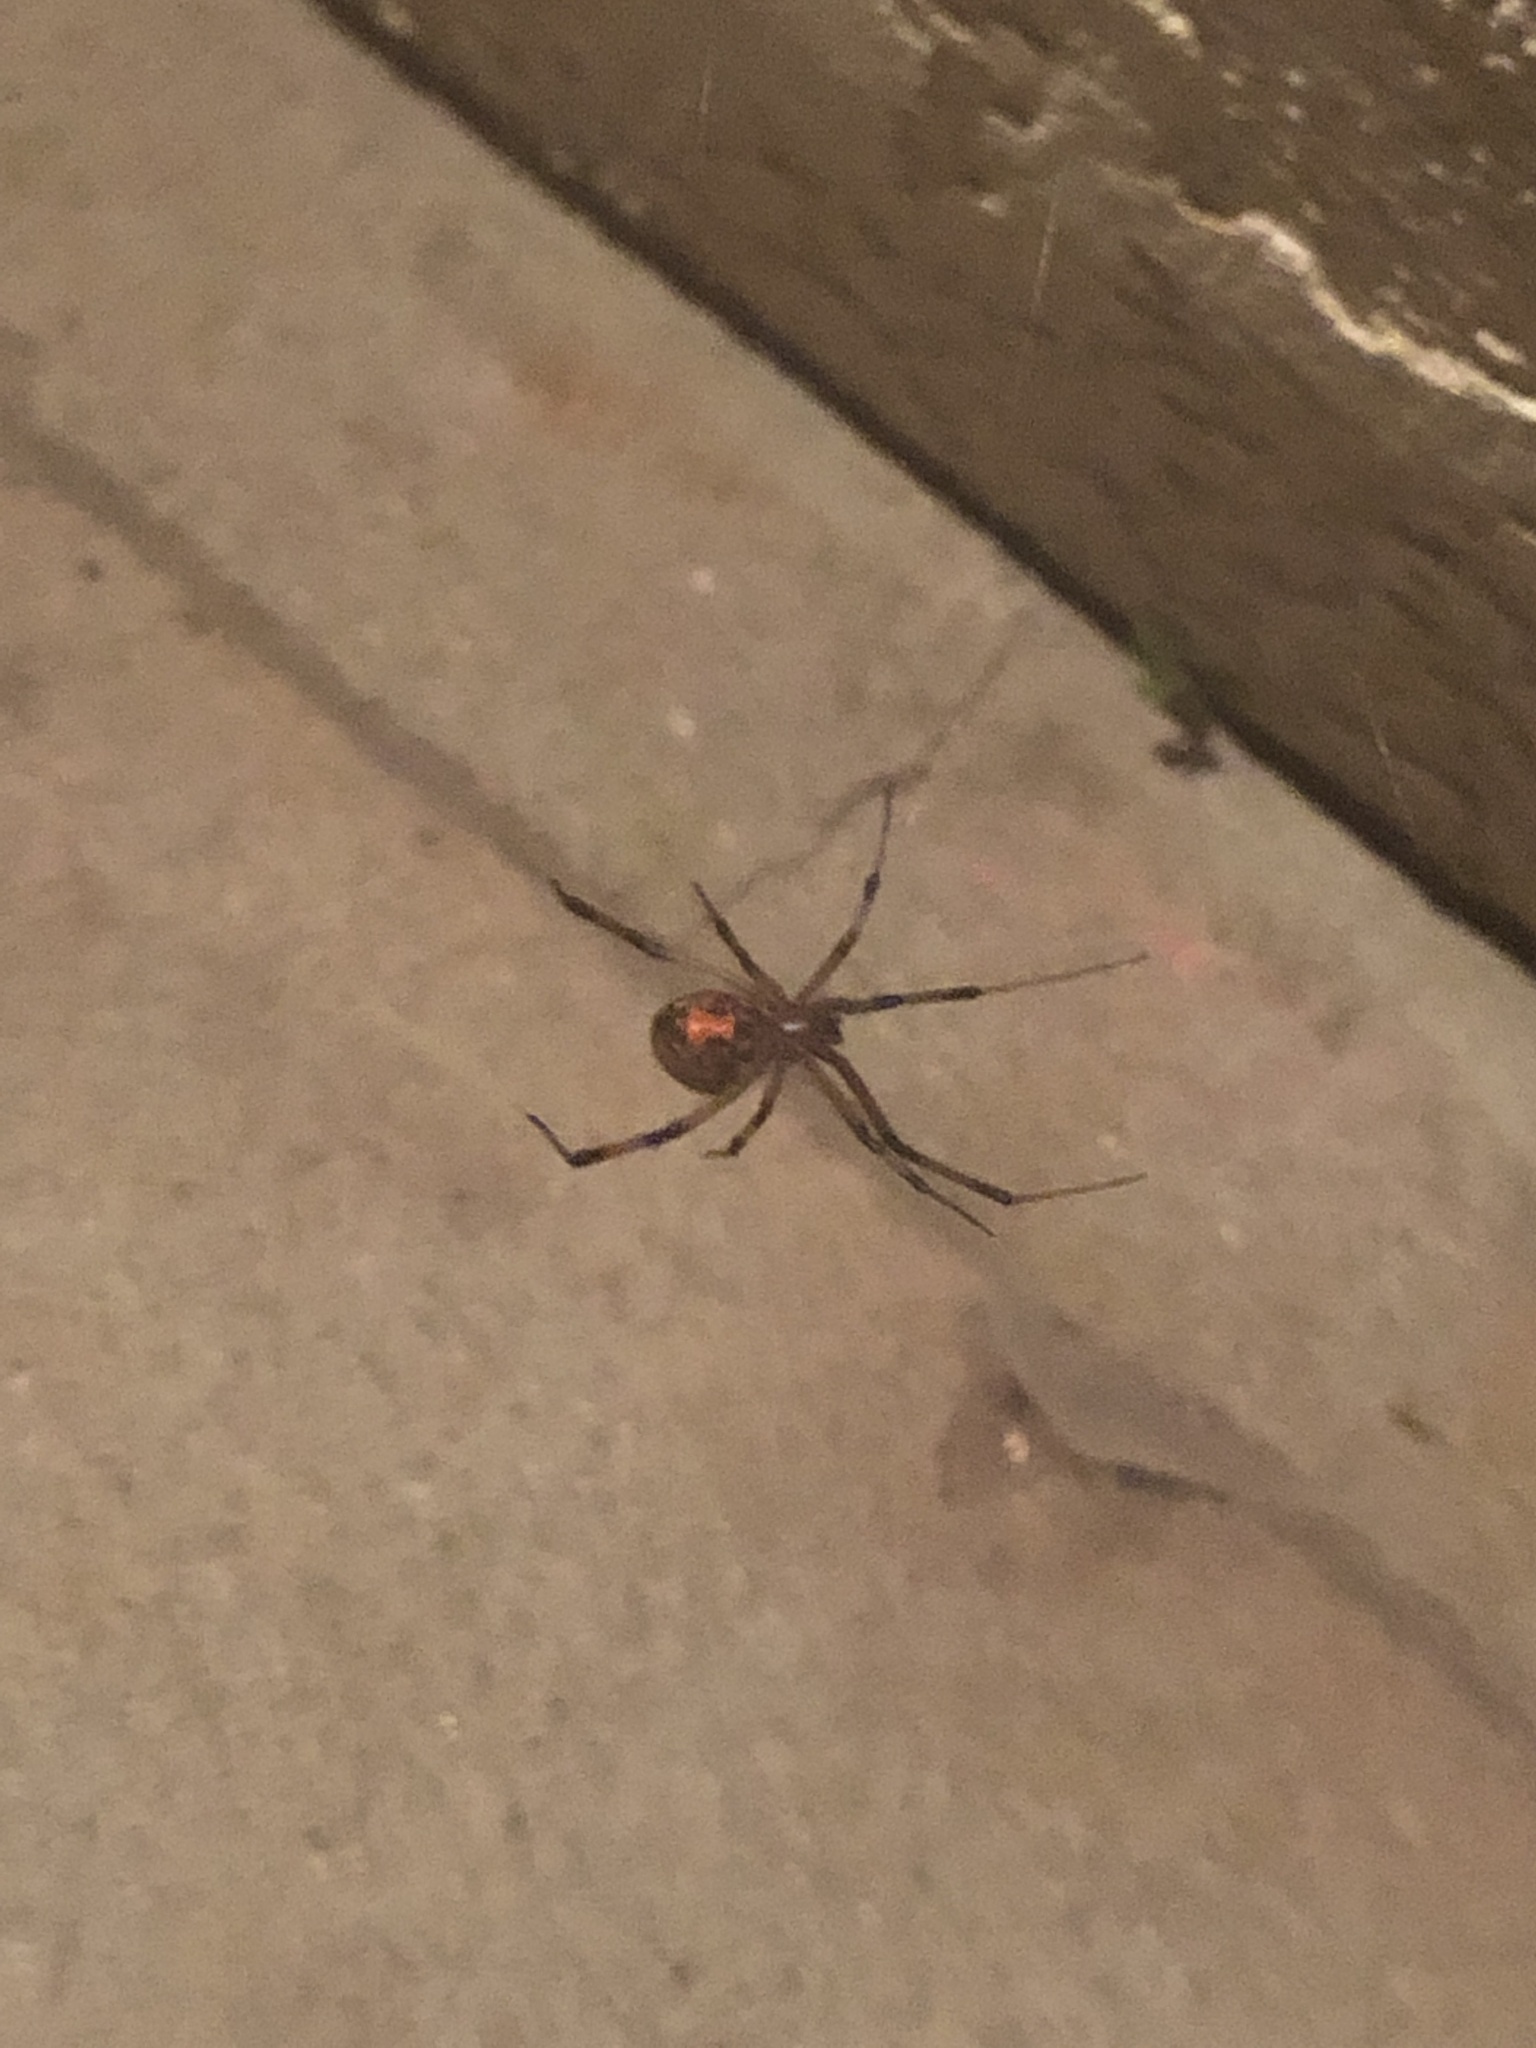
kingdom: Animalia
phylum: Arthropoda
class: Arachnida
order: Araneae
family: Theridiidae
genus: Latrodectus
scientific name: Latrodectus geometricus
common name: Brown widow spider
